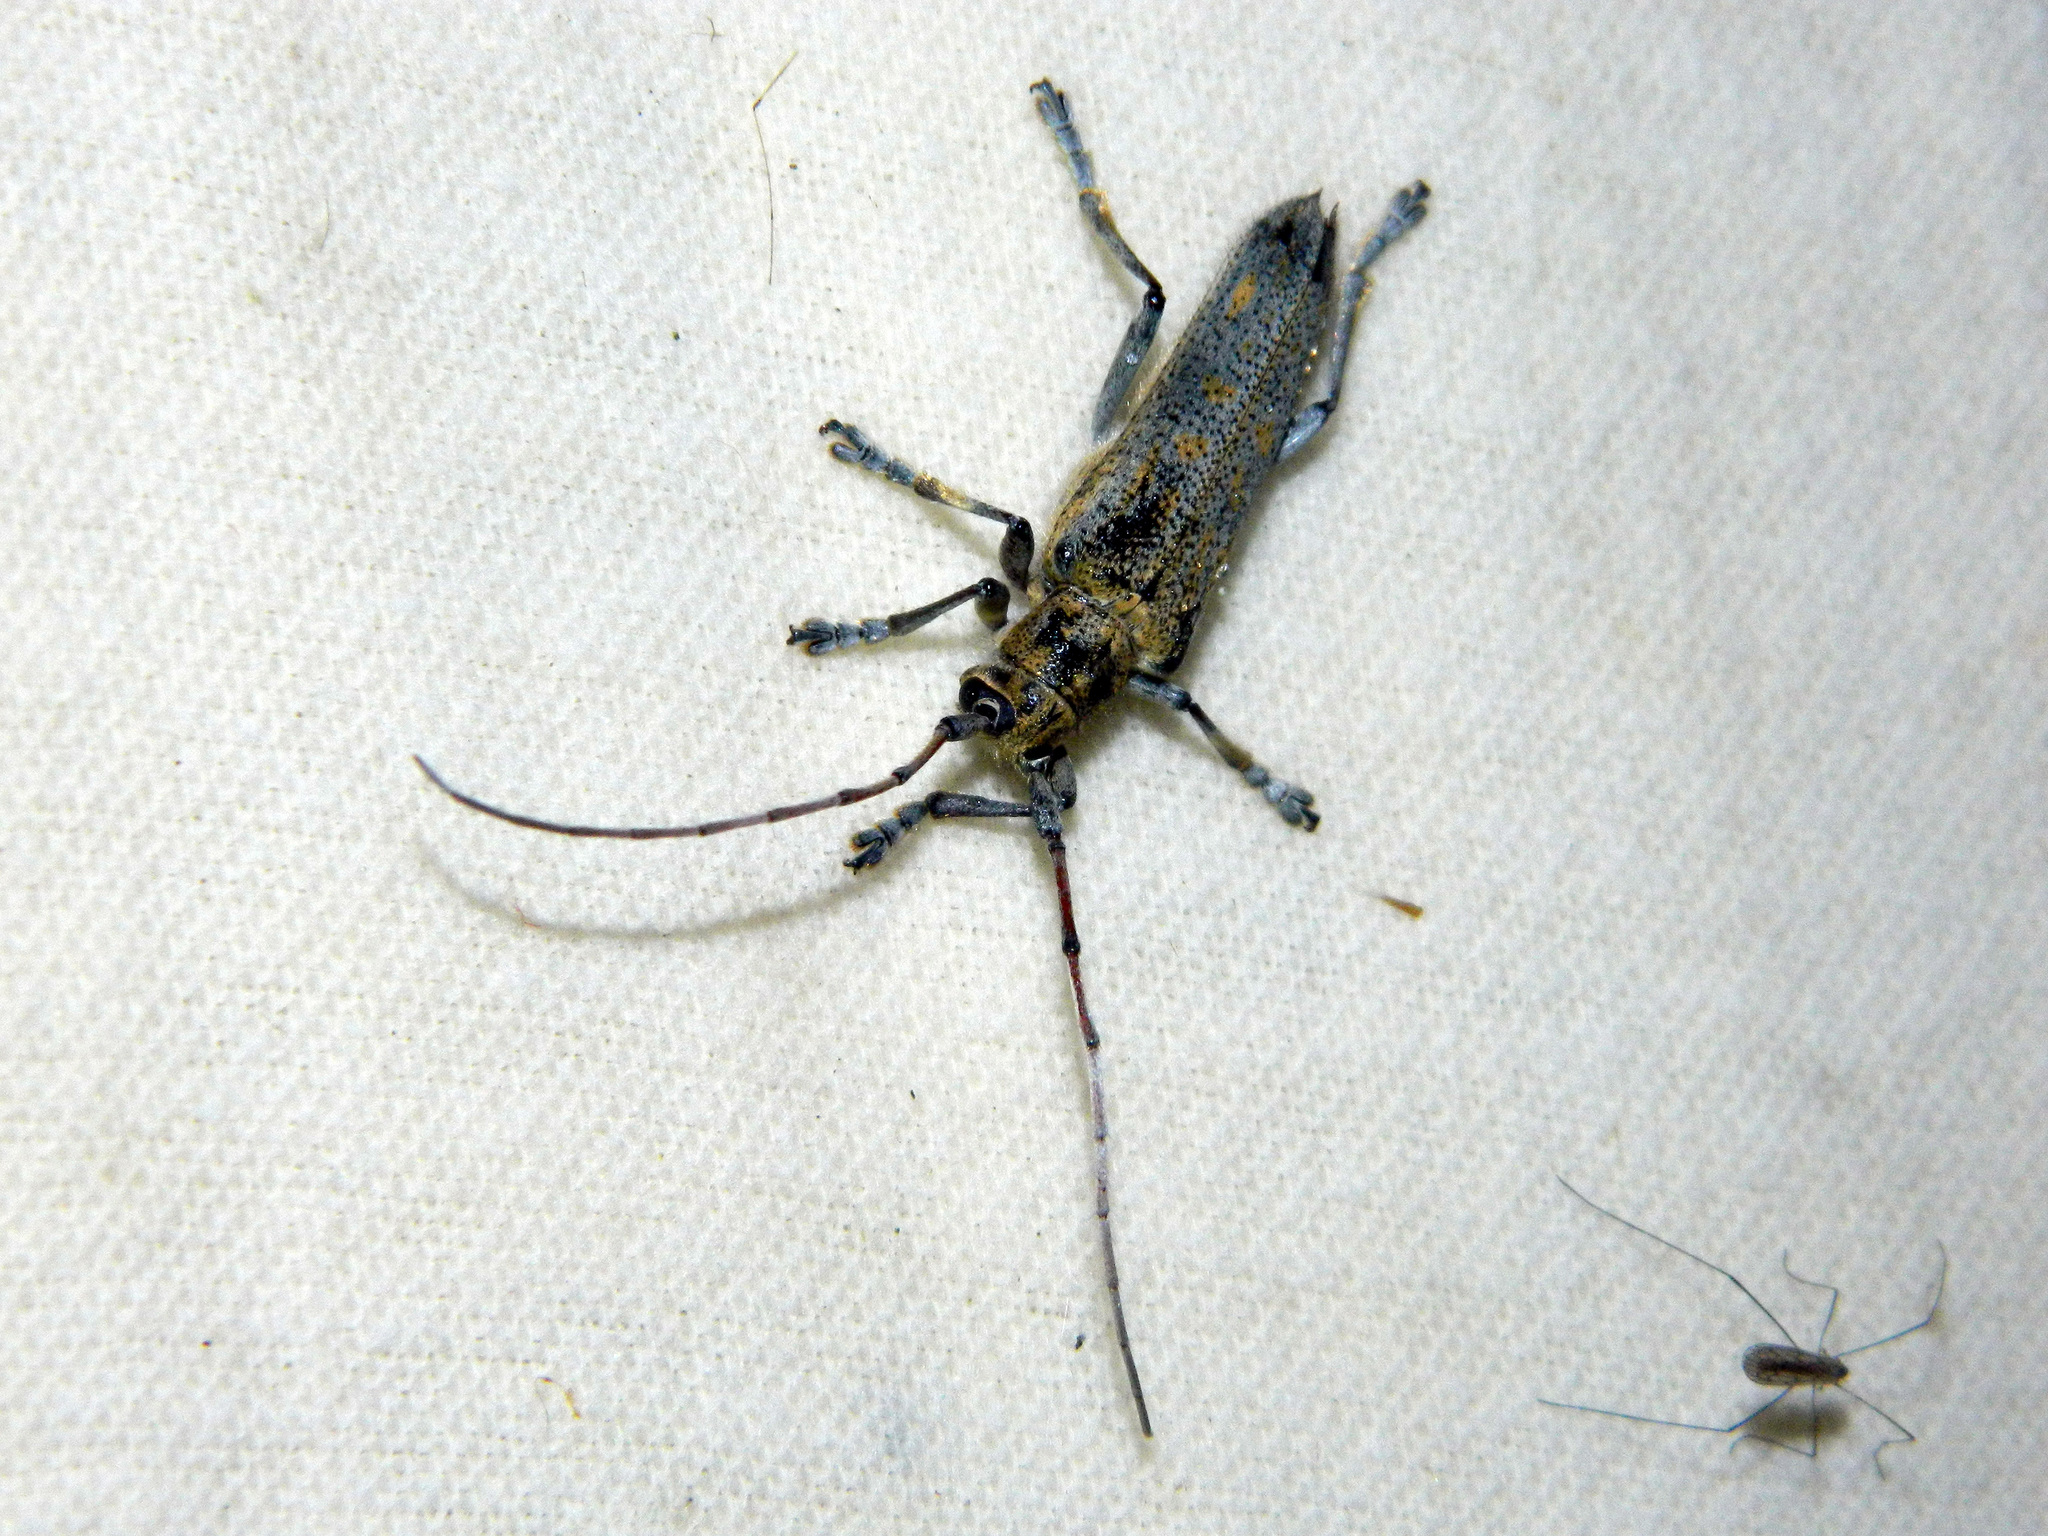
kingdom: Animalia
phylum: Arthropoda
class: Insecta
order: Coleoptera
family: Cerambycidae
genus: Saperda
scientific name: Saperda calcarata
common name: Poplar borer
